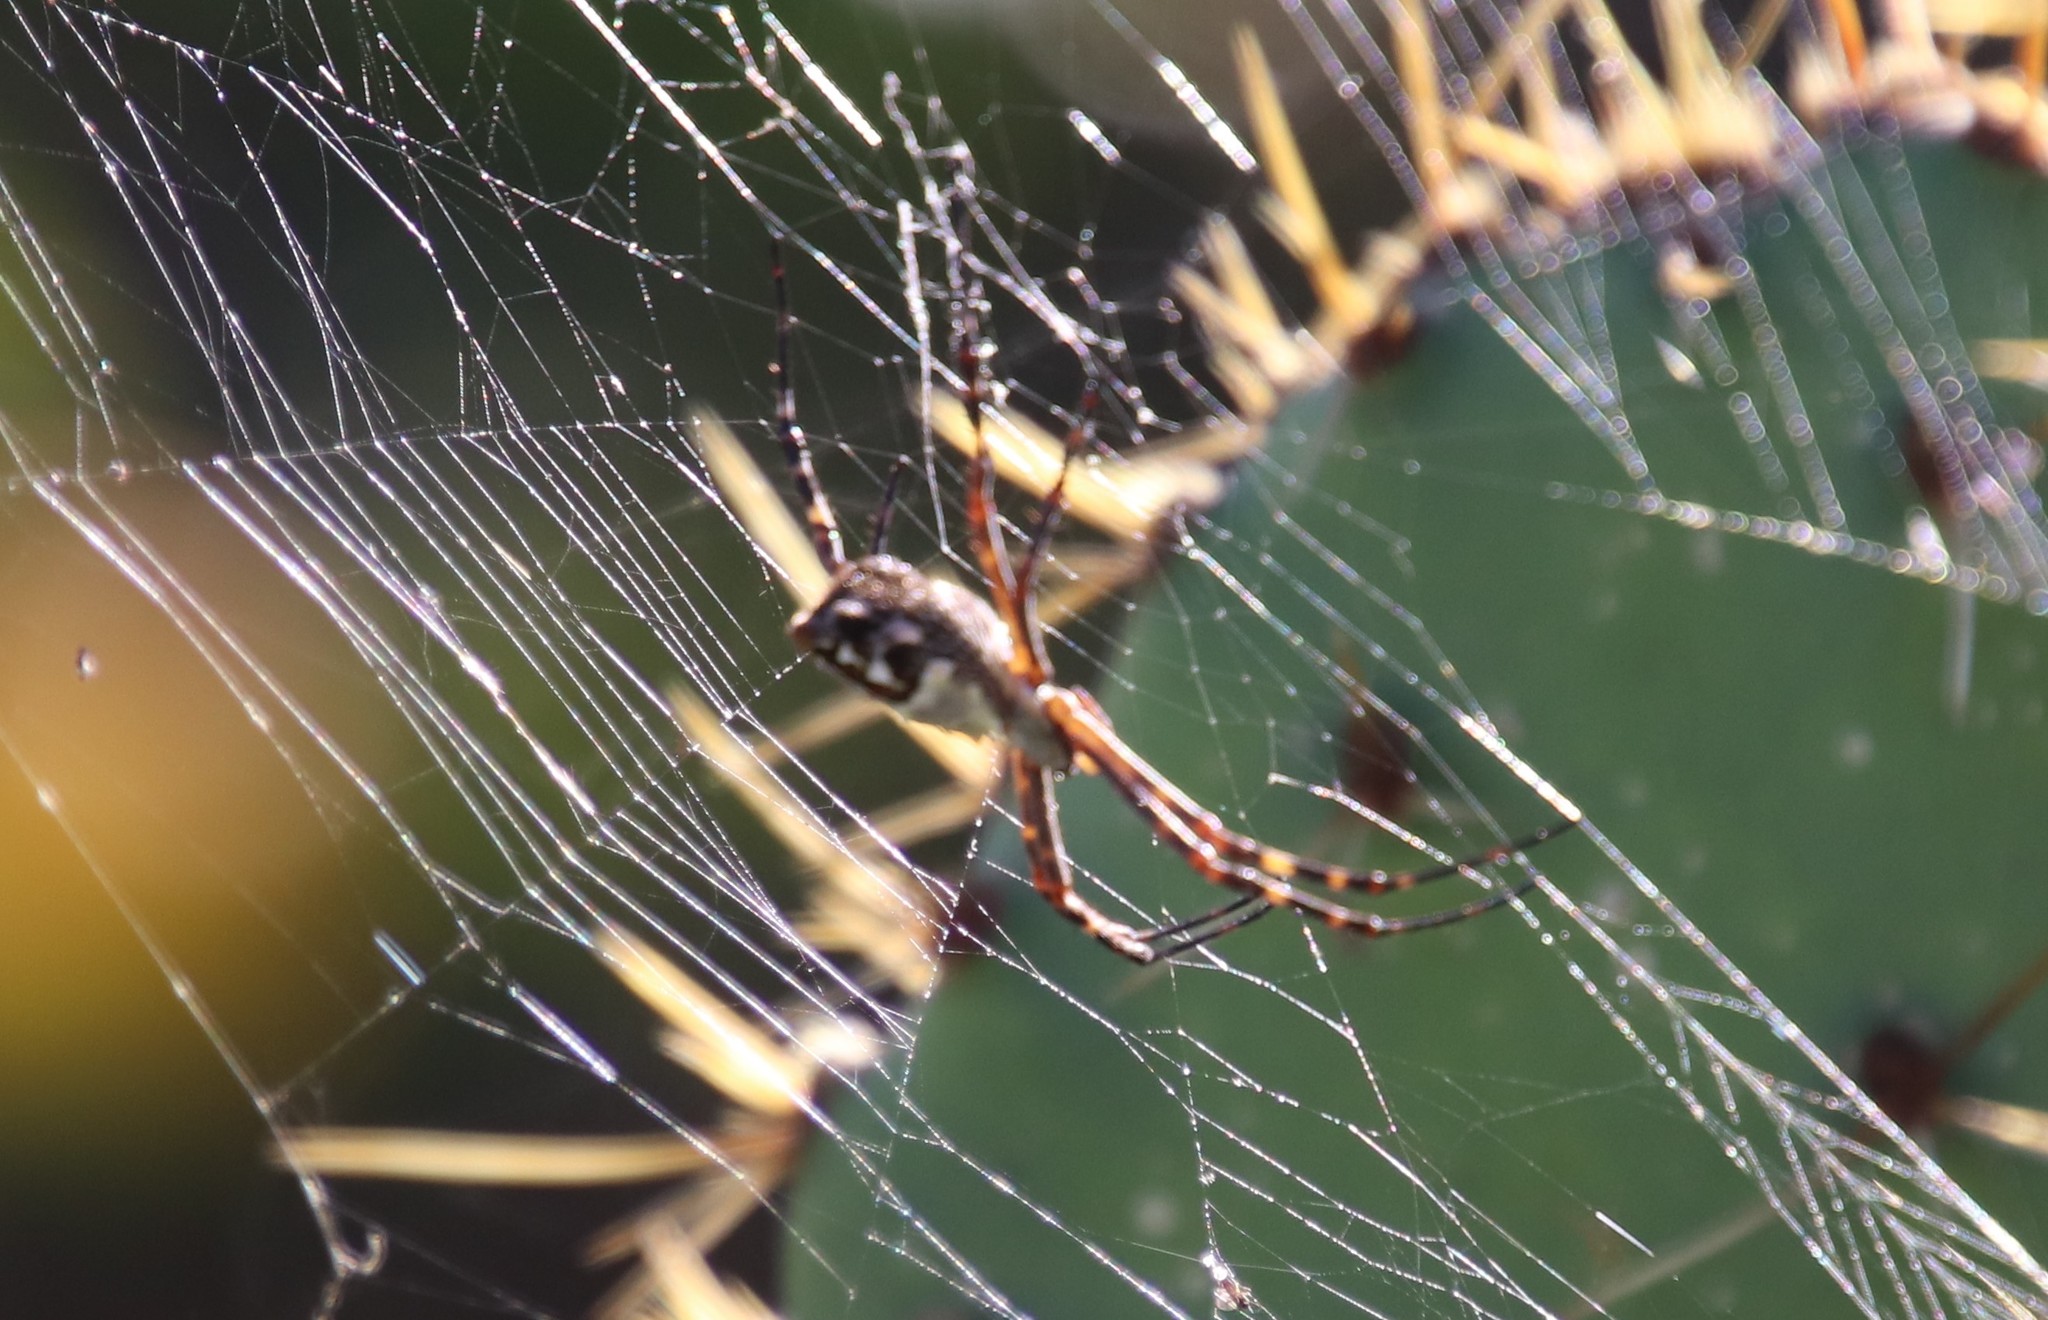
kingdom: Animalia
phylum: Arthropoda
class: Arachnida
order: Araneae
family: Araneidae
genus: Argiope
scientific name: Argiope argentata
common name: Orb weavers
